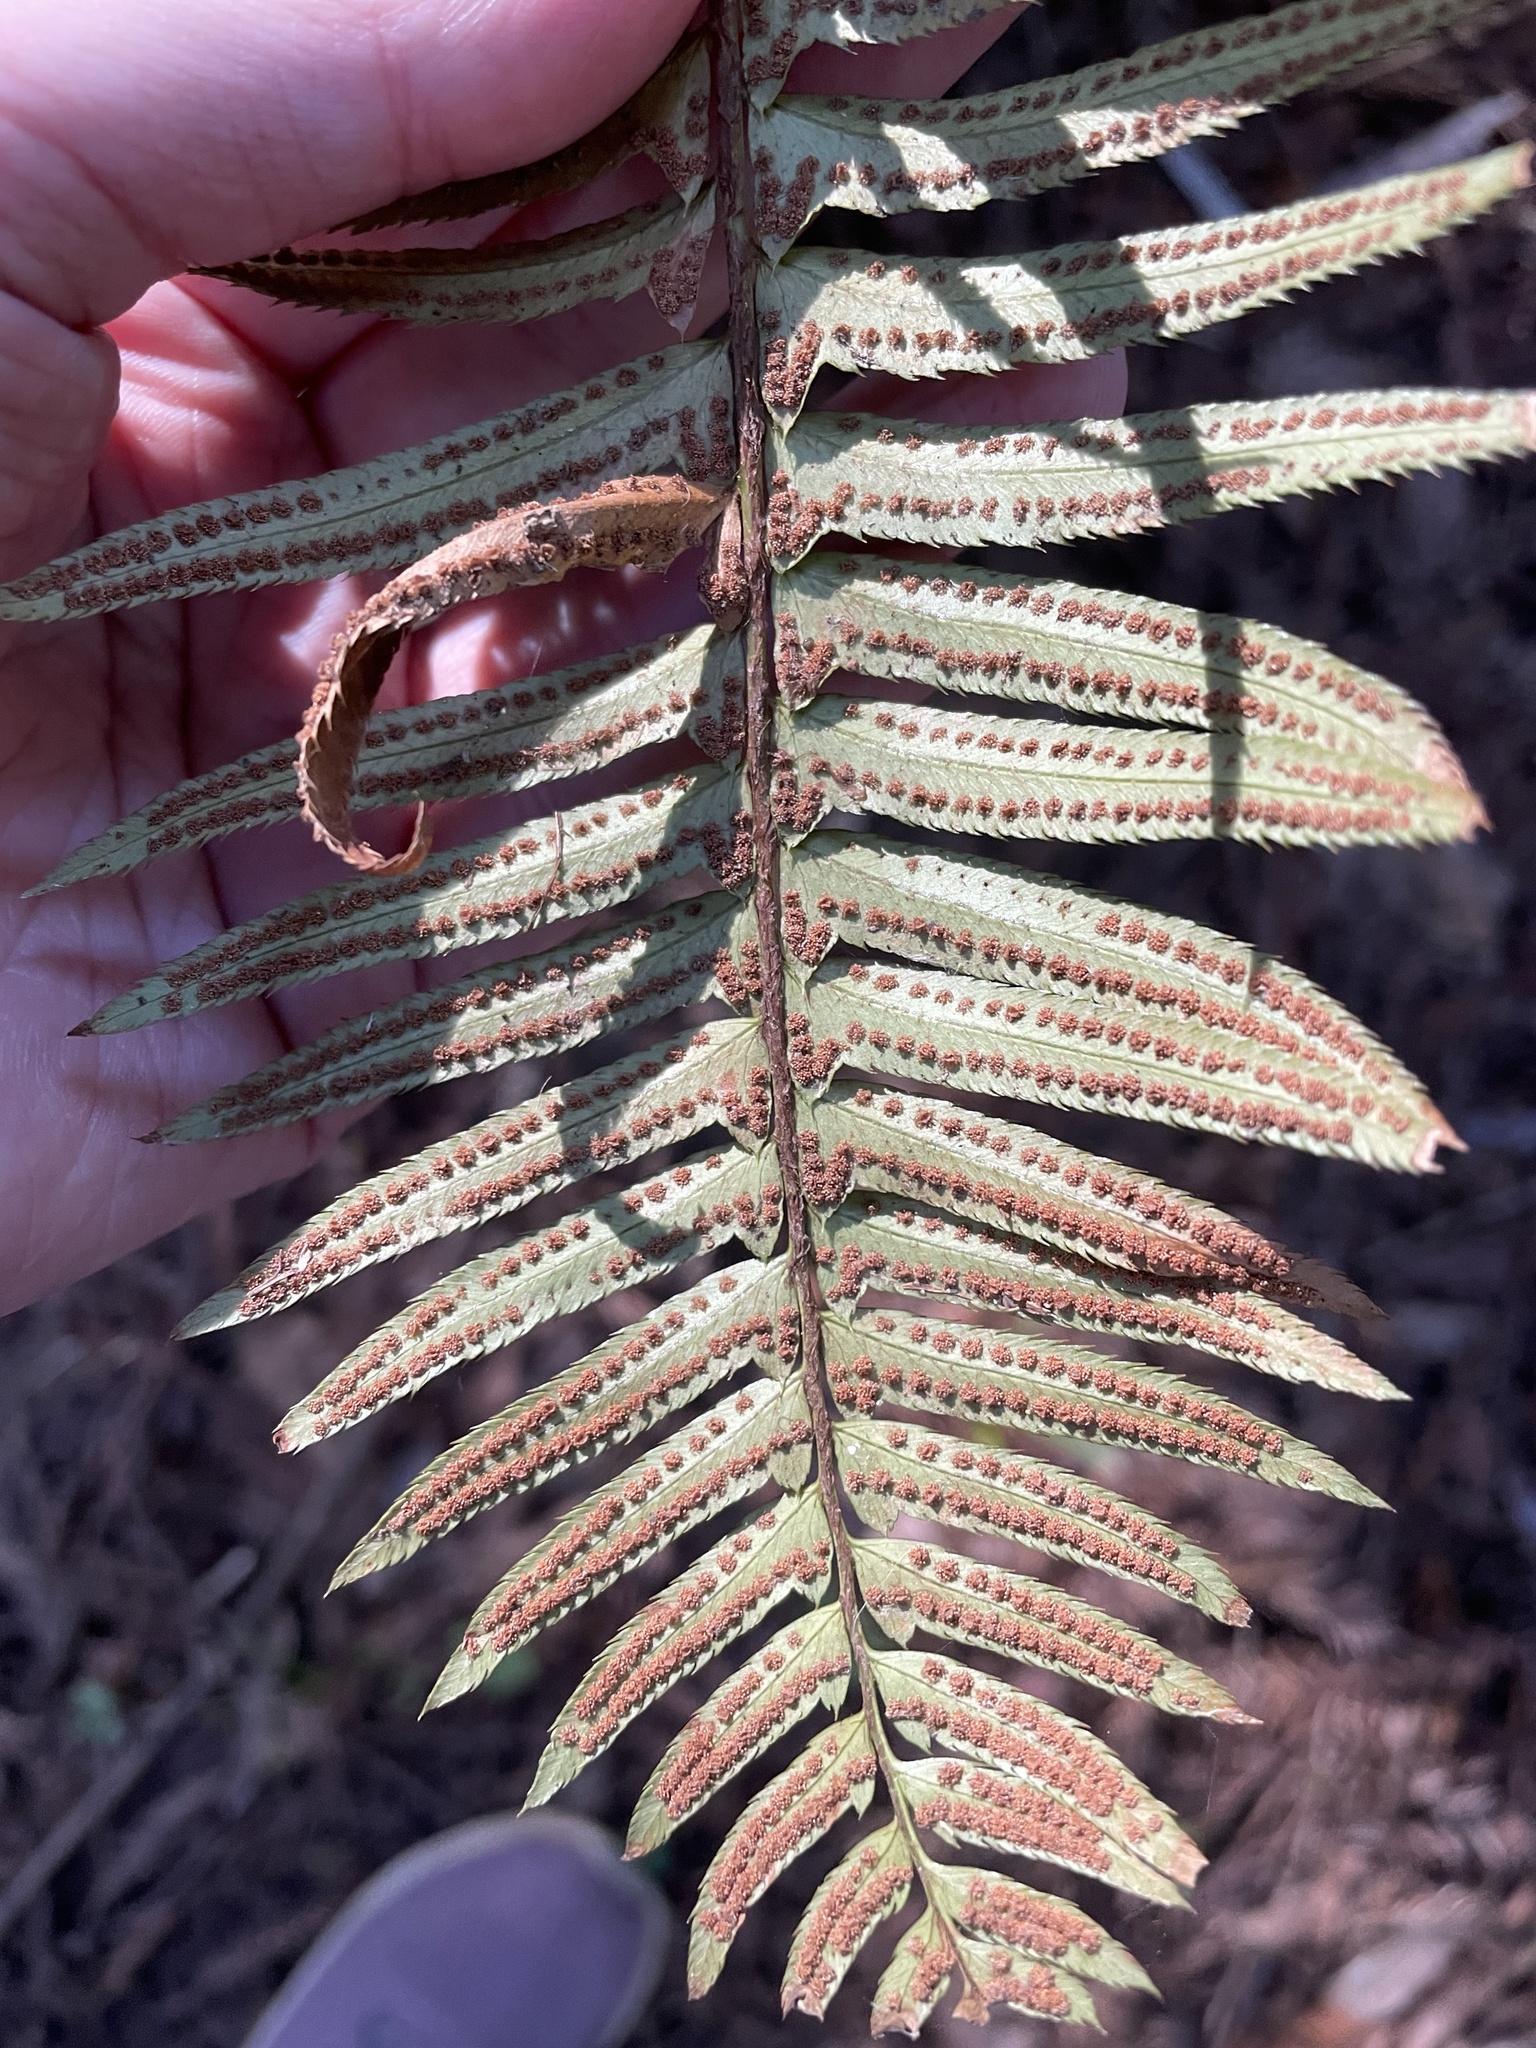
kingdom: Plantae
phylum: Tracheophyta
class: Polypodiopsida
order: Polypodiales
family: Dryopteridaceae
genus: Polystichum
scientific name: Polystichum munitum
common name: Western sword-fern
